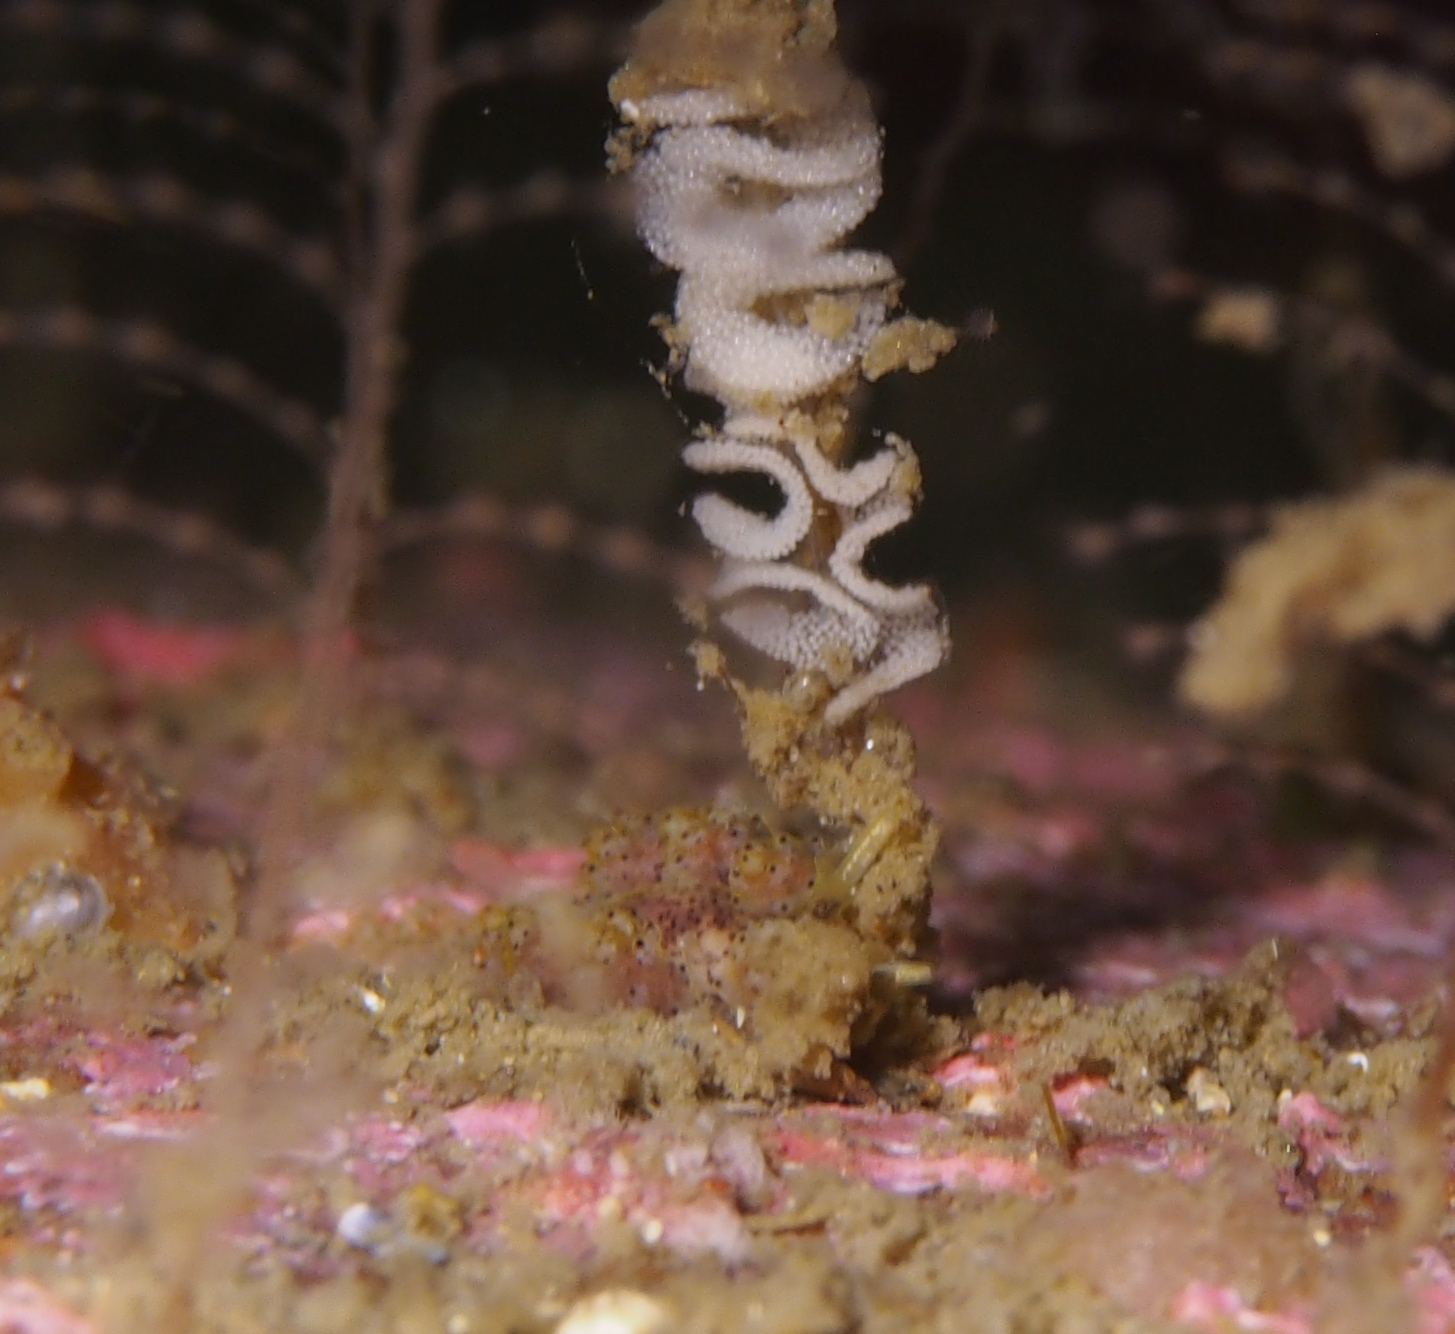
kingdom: Animalia
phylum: Mollusca
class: Gastropoda
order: Nudibranchia
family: Dotidae
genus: Doto
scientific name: Doto dunnei
